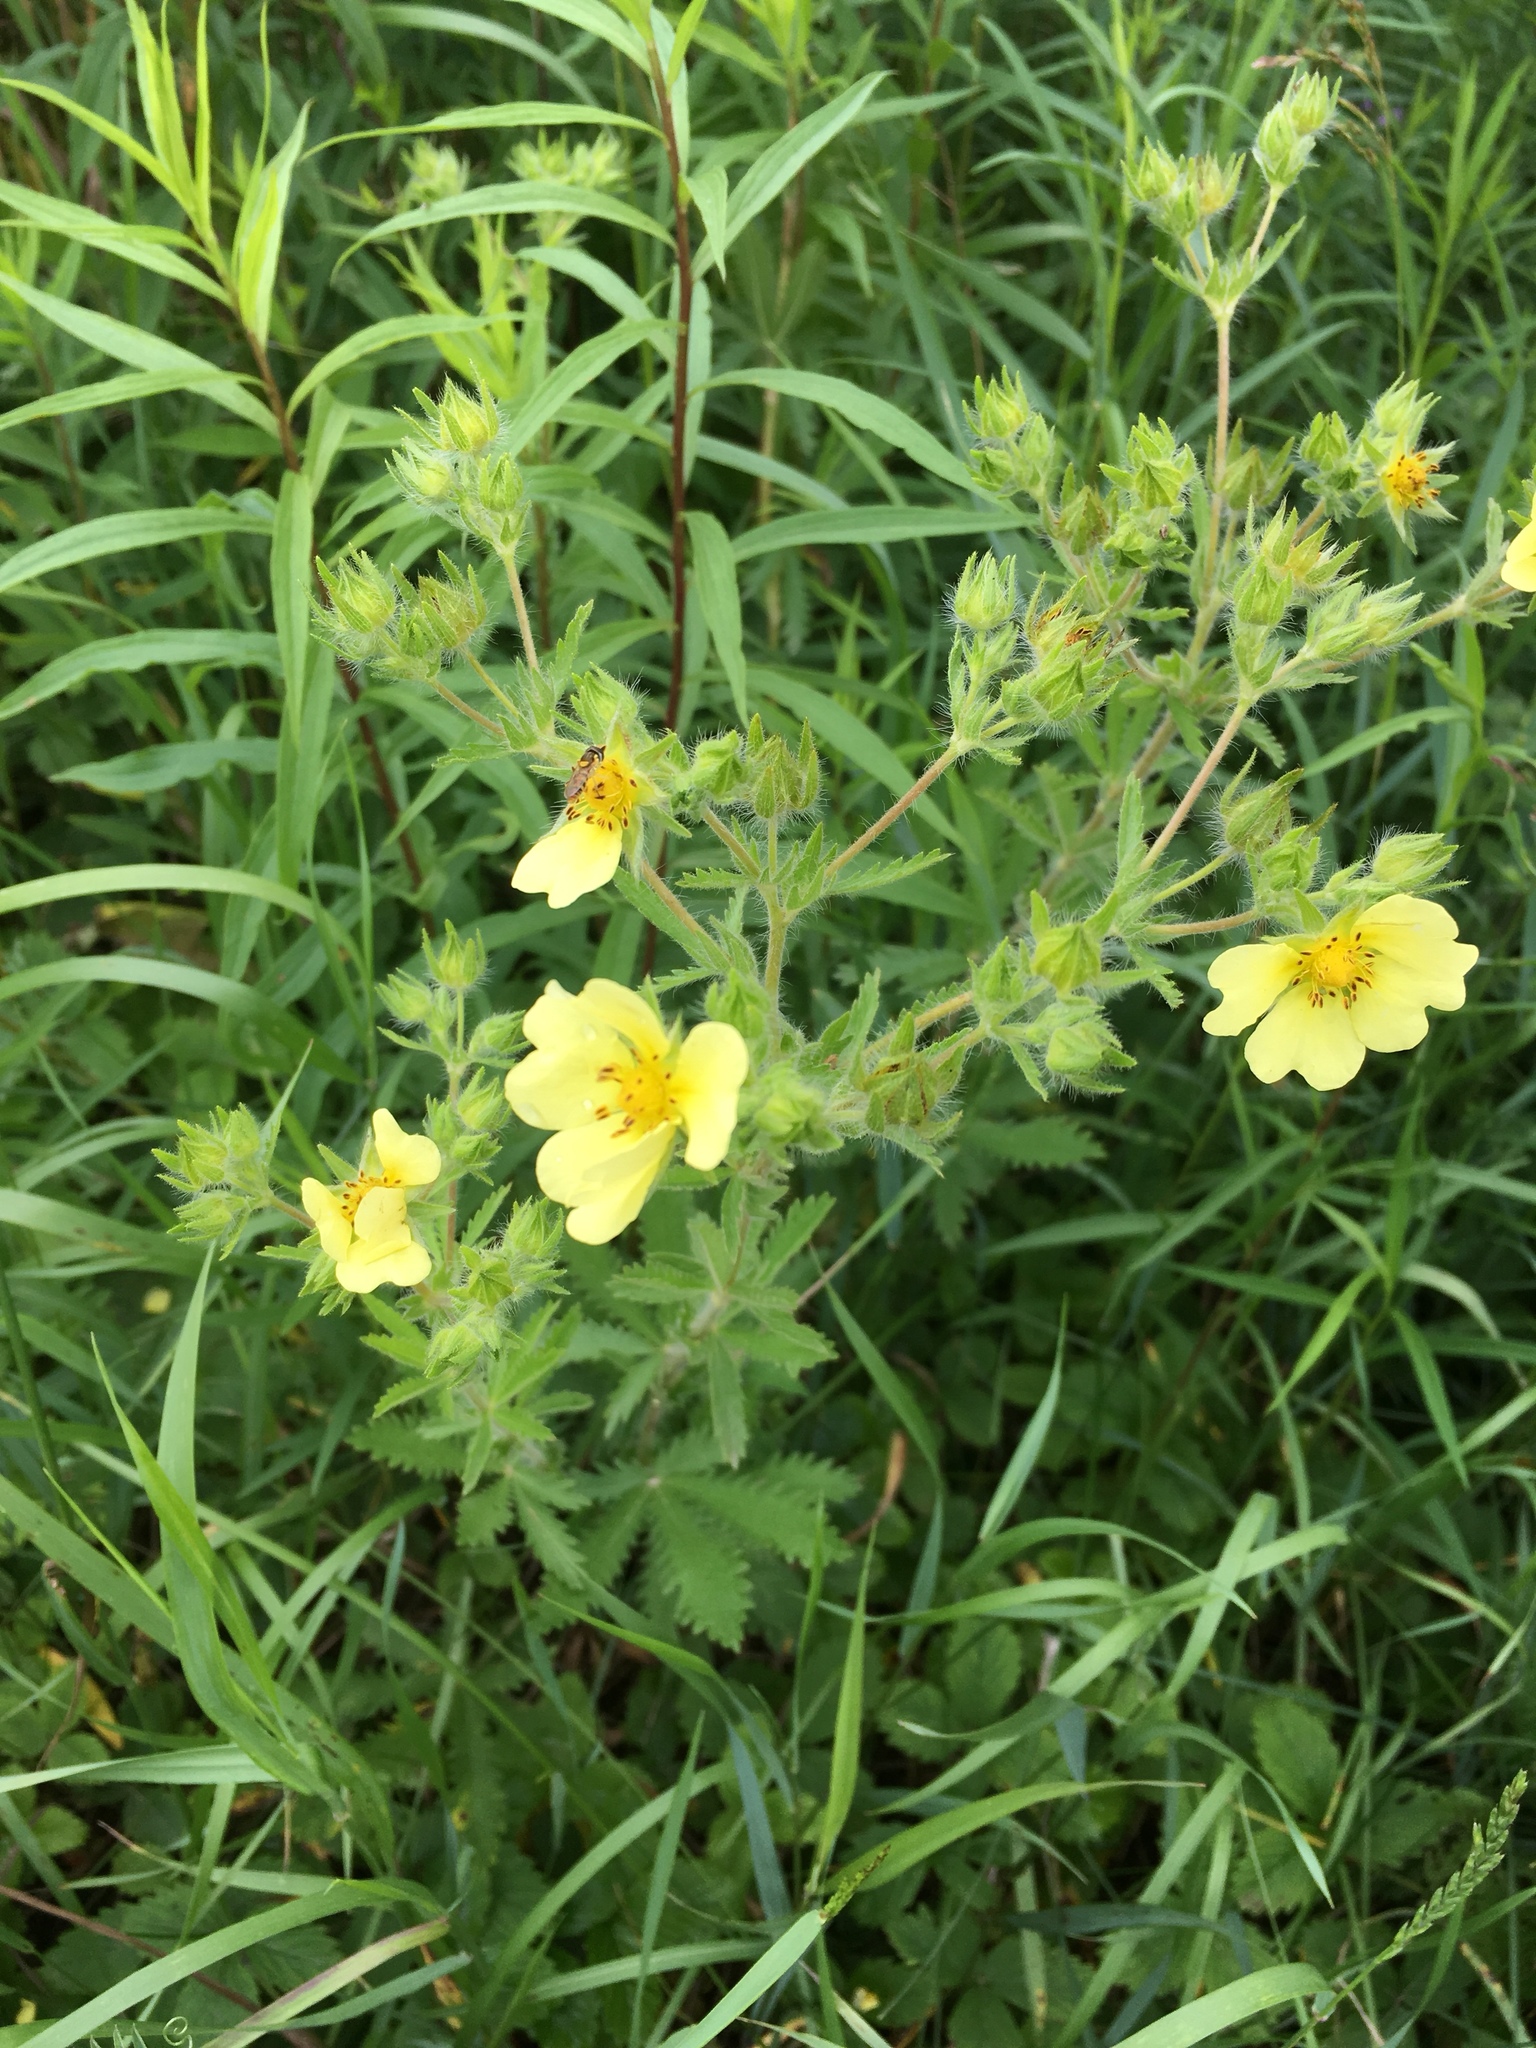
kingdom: Plantae
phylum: Tracheophyta
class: Magnoliopsida
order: Rosales
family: Rosaceae
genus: Potentilla
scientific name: Potentilla recta
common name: Sulphur cinquefoil
